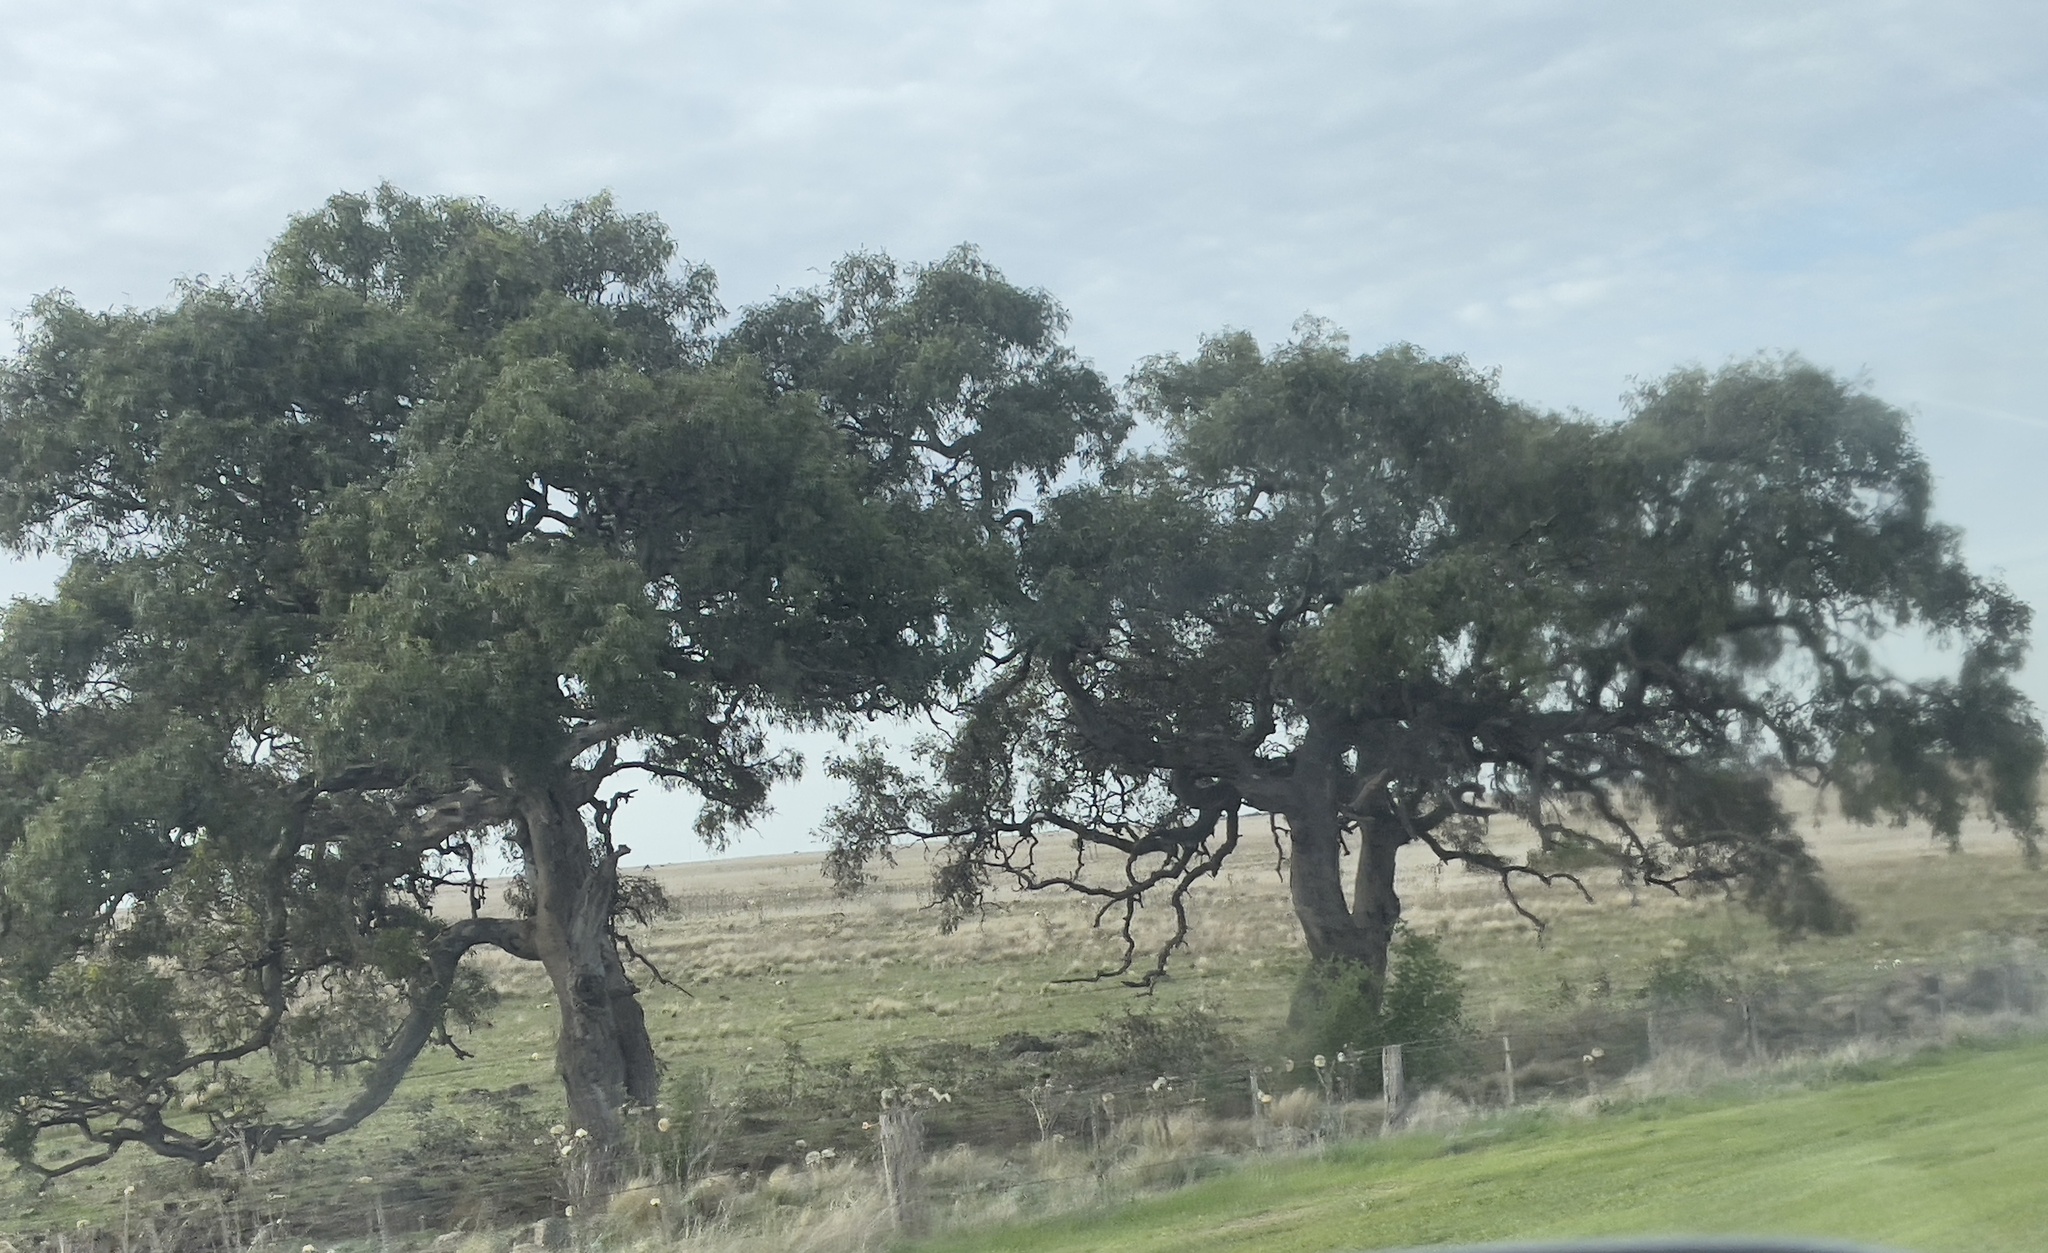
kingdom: Plantae
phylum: Tracheophyta
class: Magnoliopsida
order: Myrtales
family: Myrtaceae
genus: Eucalyptus
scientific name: Eucalyptus camaldulensis
